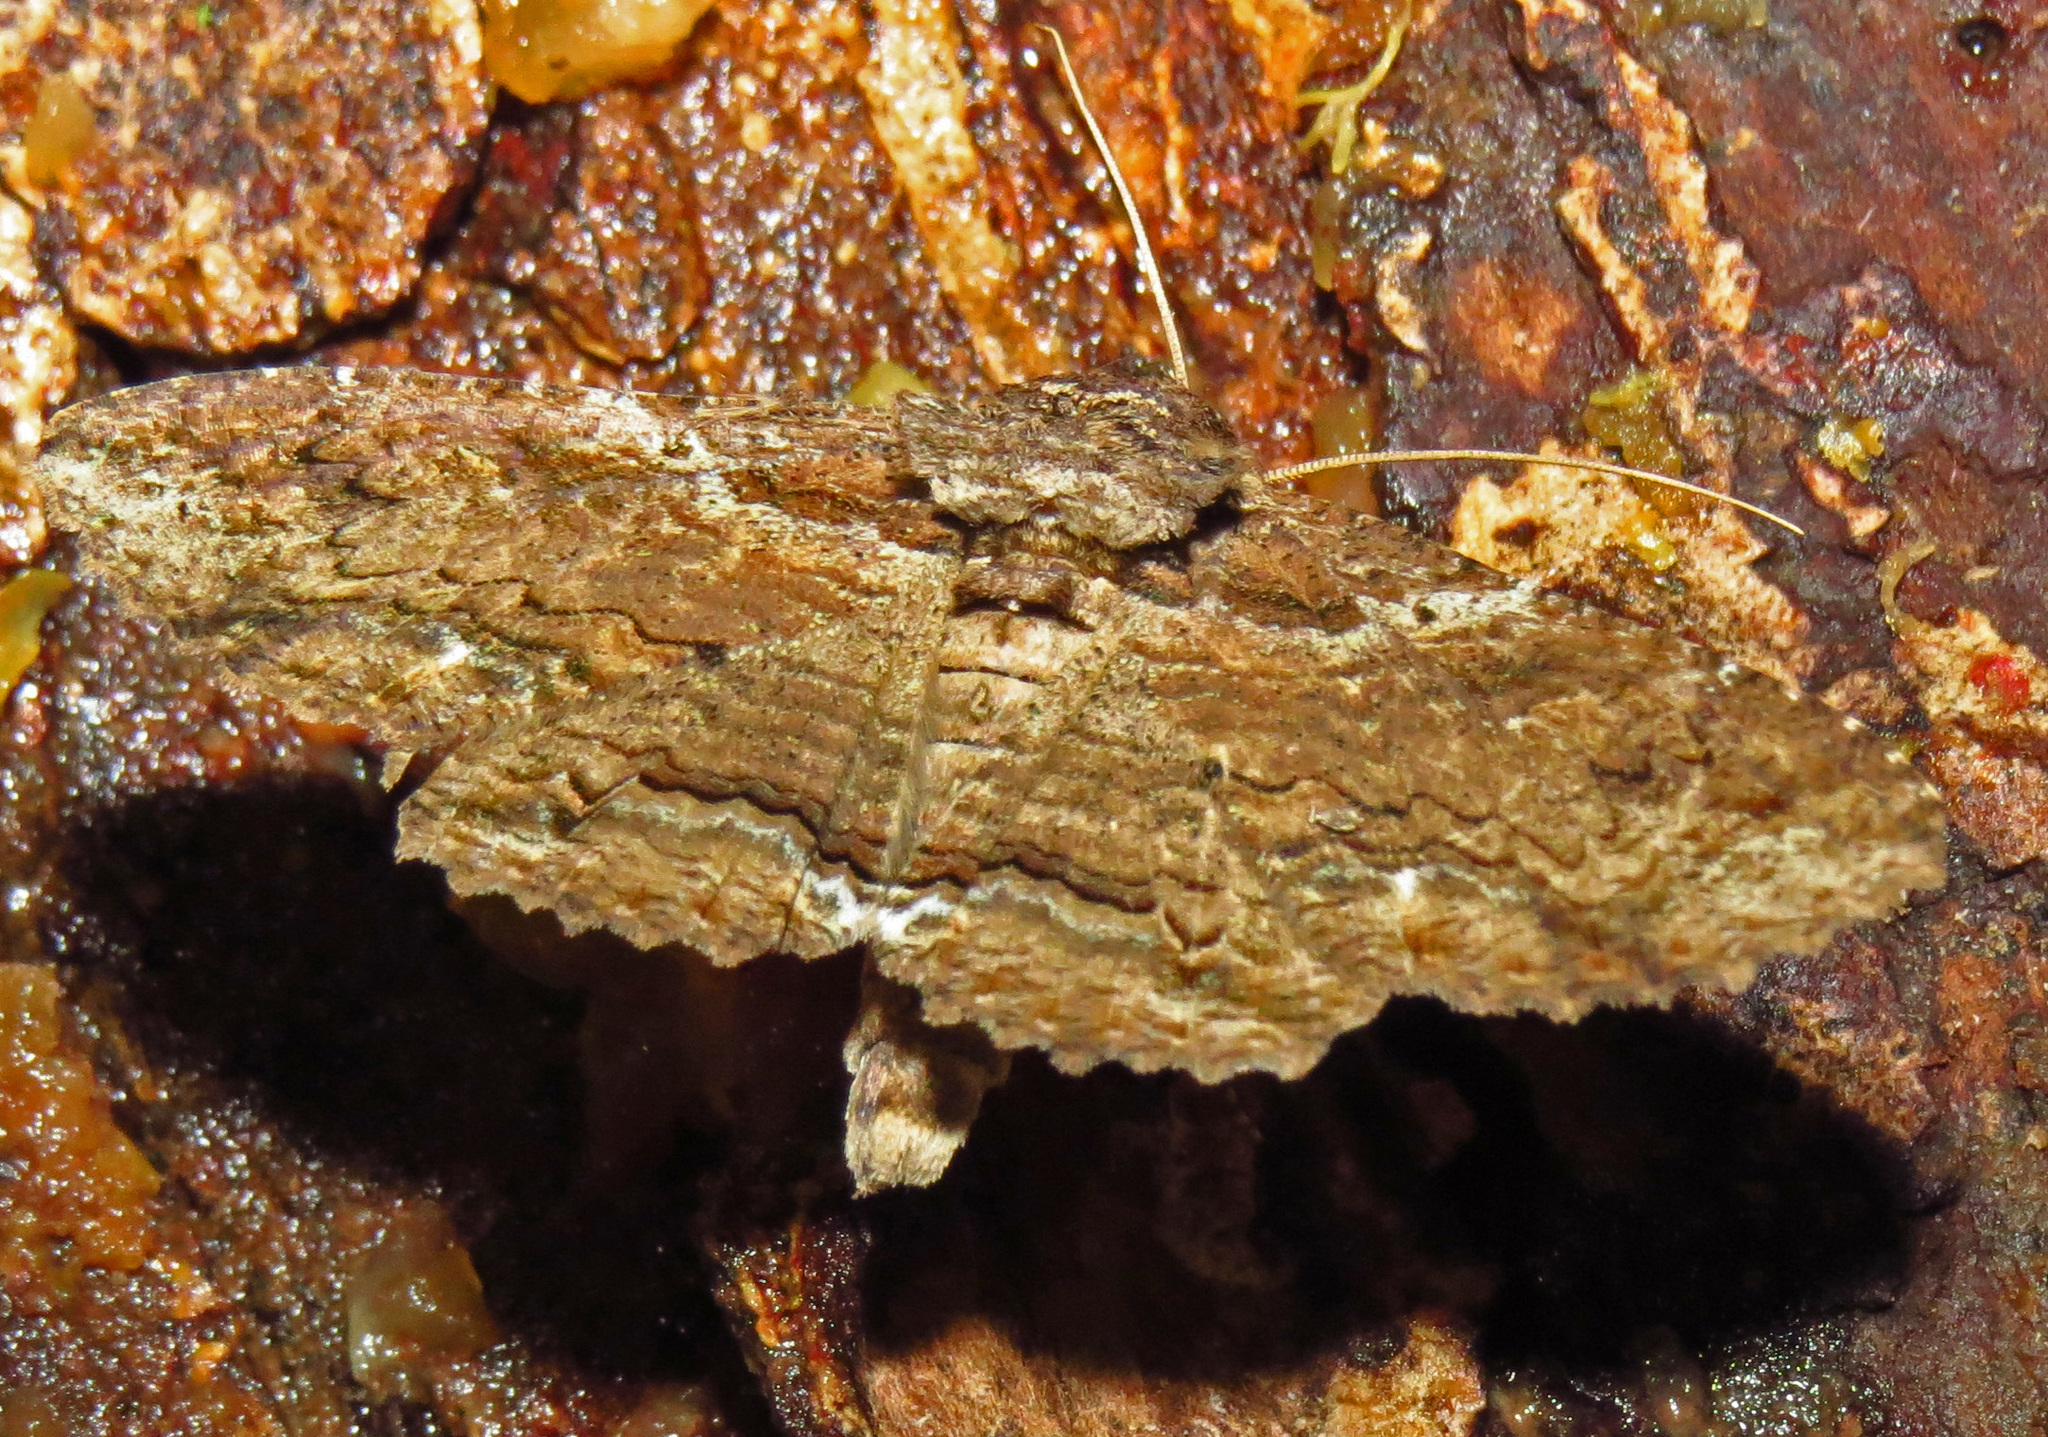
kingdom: Animalia
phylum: Arthropoda
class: Insecta
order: Lepidoptera
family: Erebidae
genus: Zale
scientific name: Zale lunata
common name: Lunate zale moth
